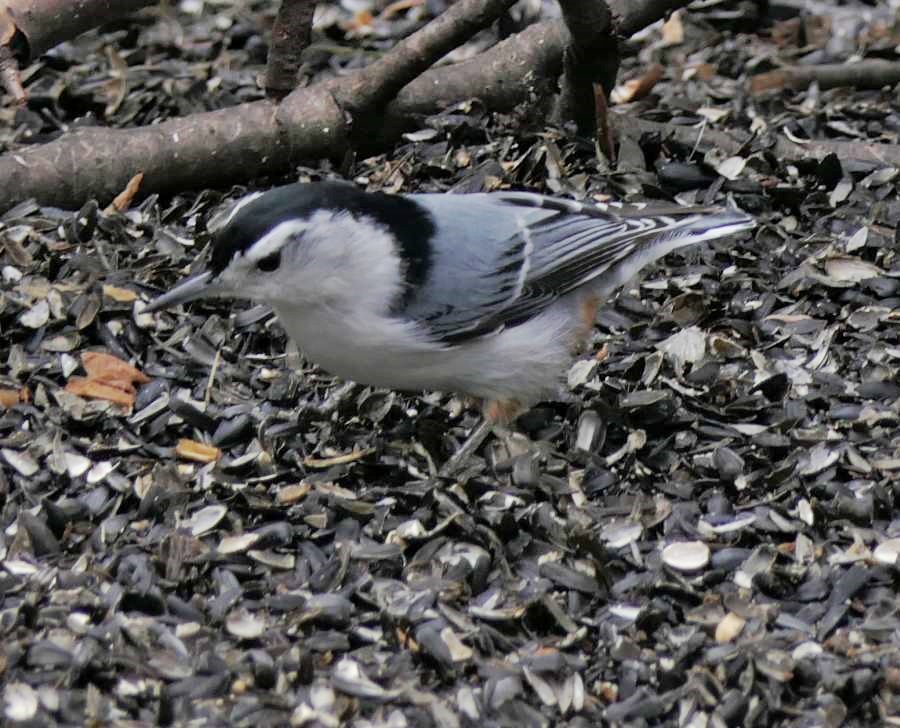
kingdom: Animalia
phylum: Chordata
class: Aves
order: Passeriformes
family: Sittidae
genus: Sitta
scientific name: Sitta carolinensis
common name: White-breasted nuthatch
